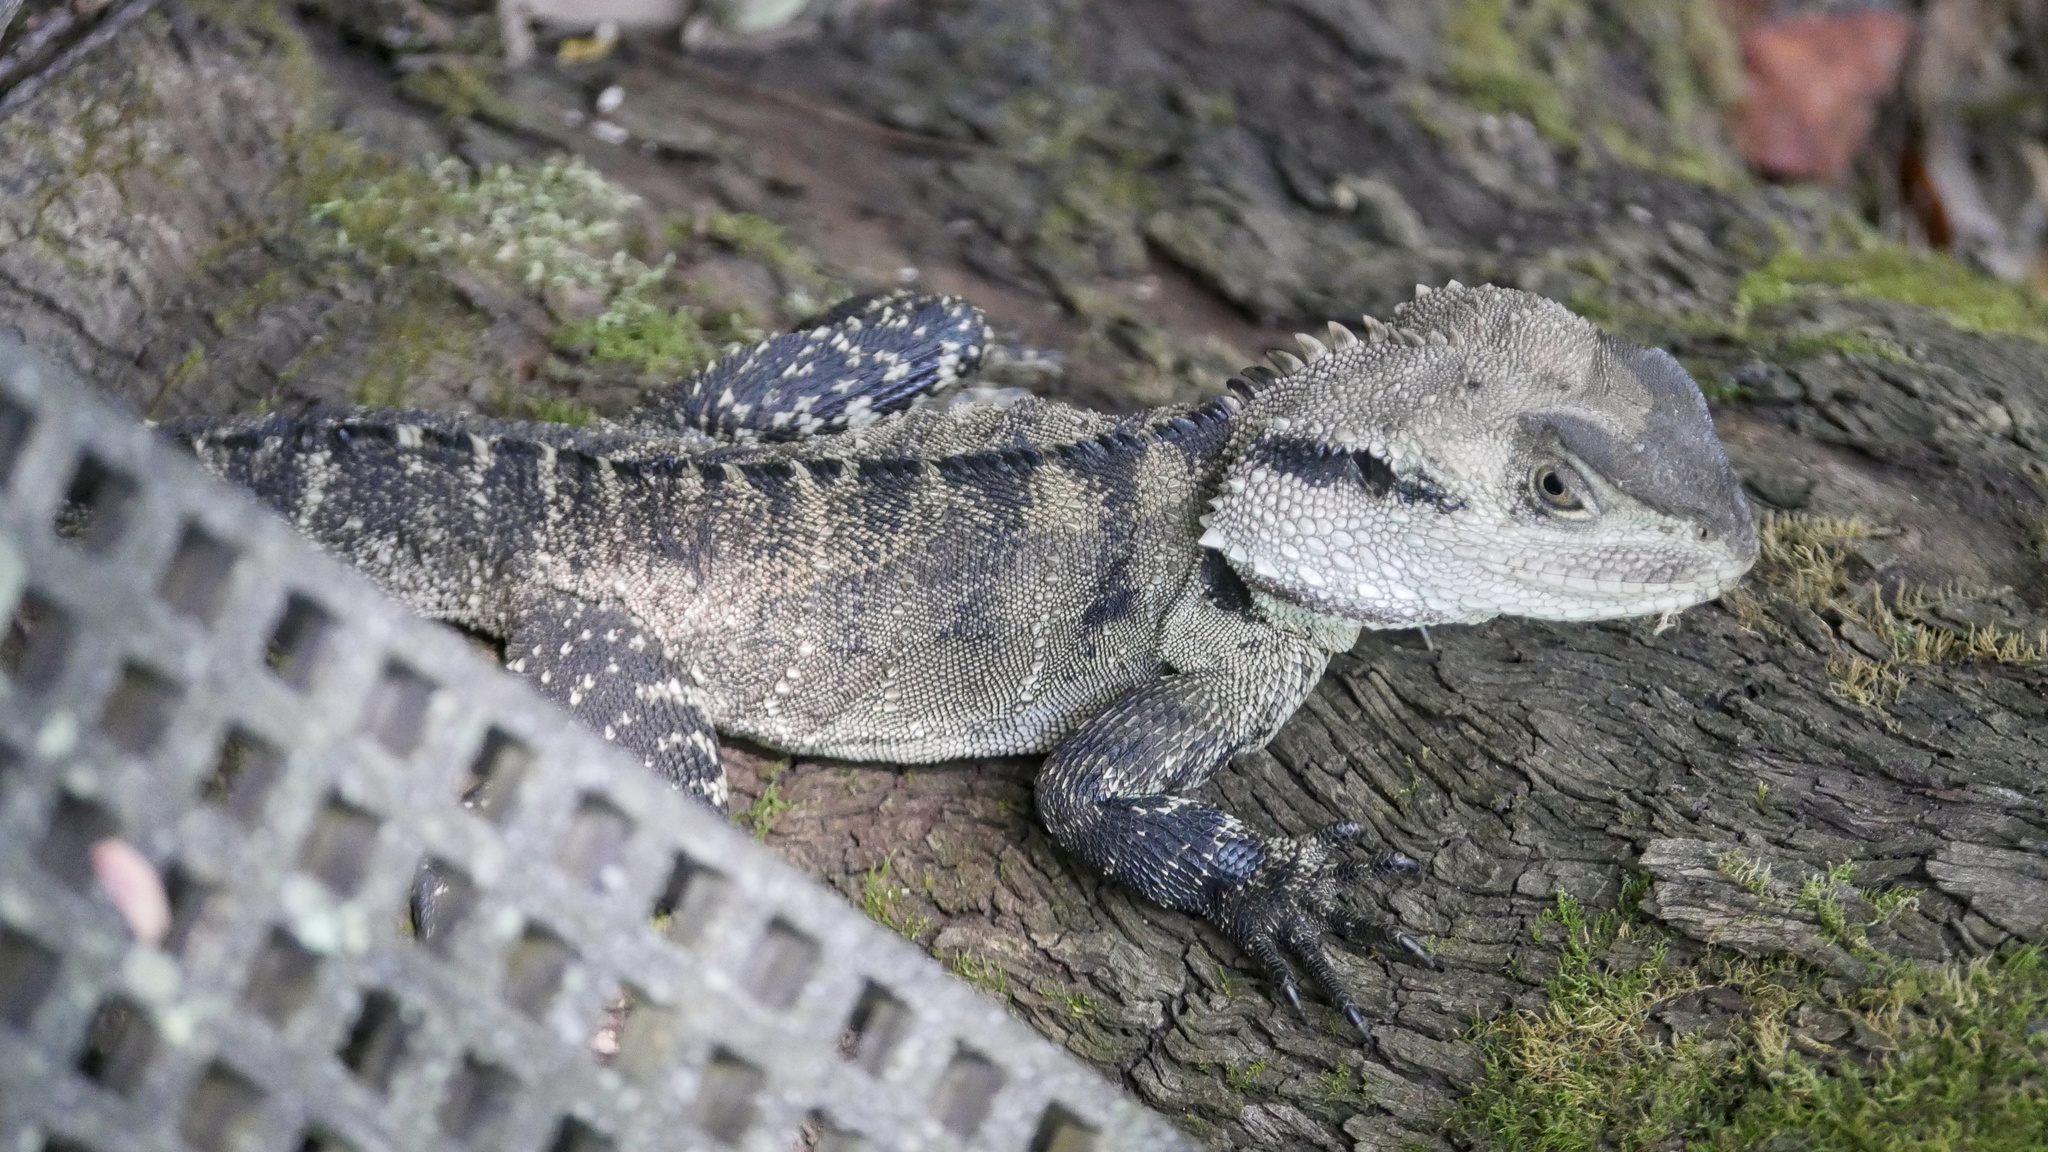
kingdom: Animalia
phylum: Chordata
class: Squamata
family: Agamidae
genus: Intellagama
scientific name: Intellagama lesueurii
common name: Eastern water dragon
